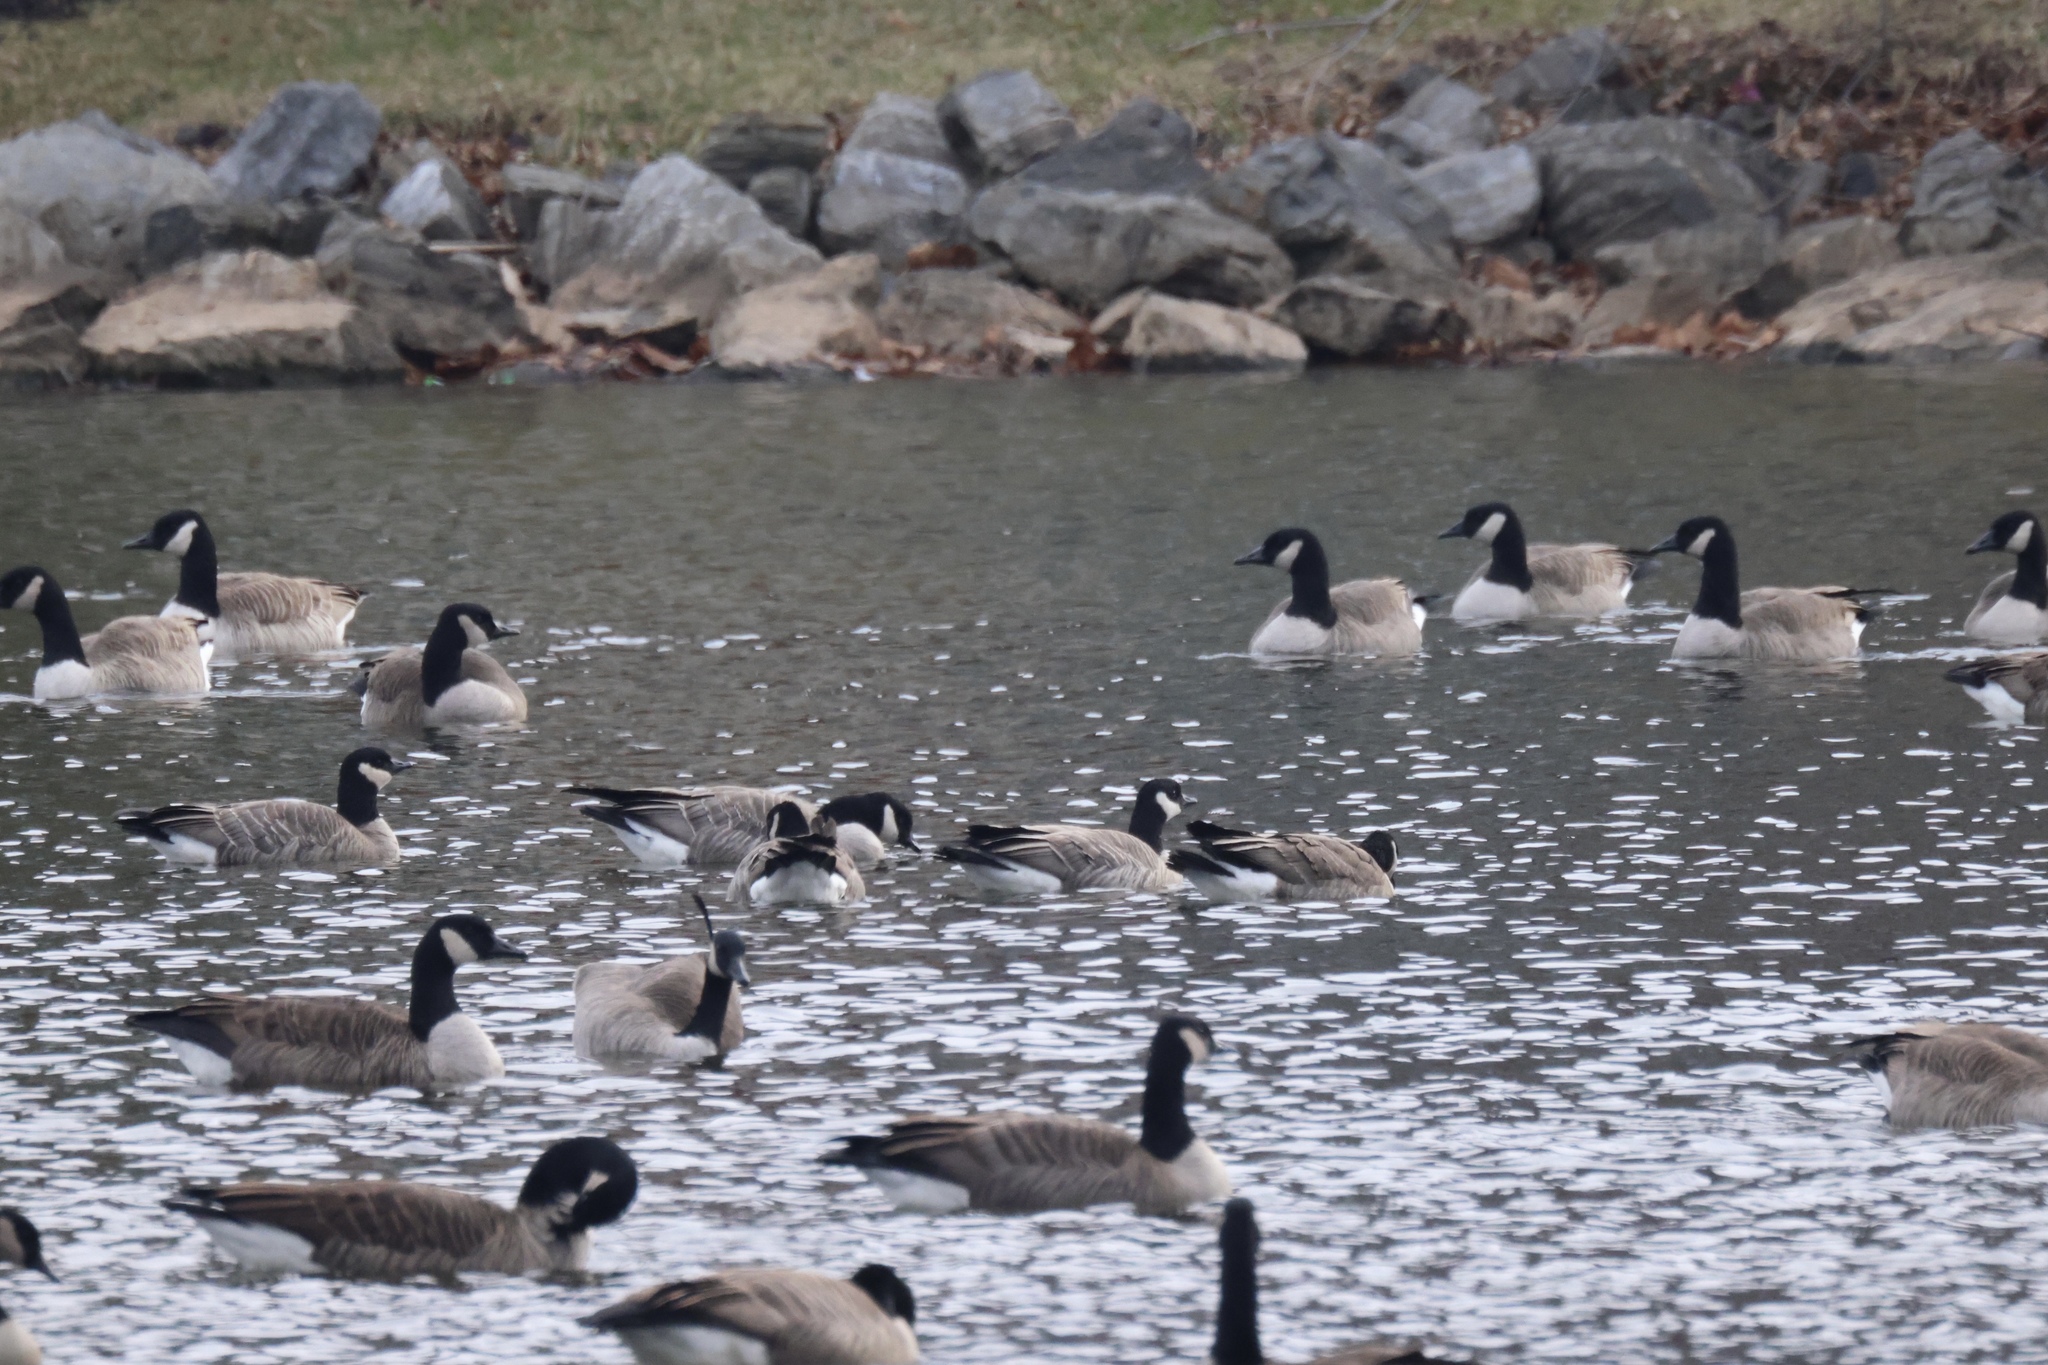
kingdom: Animalia
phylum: Chordata
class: Aves
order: Anseriformes
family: Anatidae
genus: Branta
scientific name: Branta hutchinsii
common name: Cackling goose
